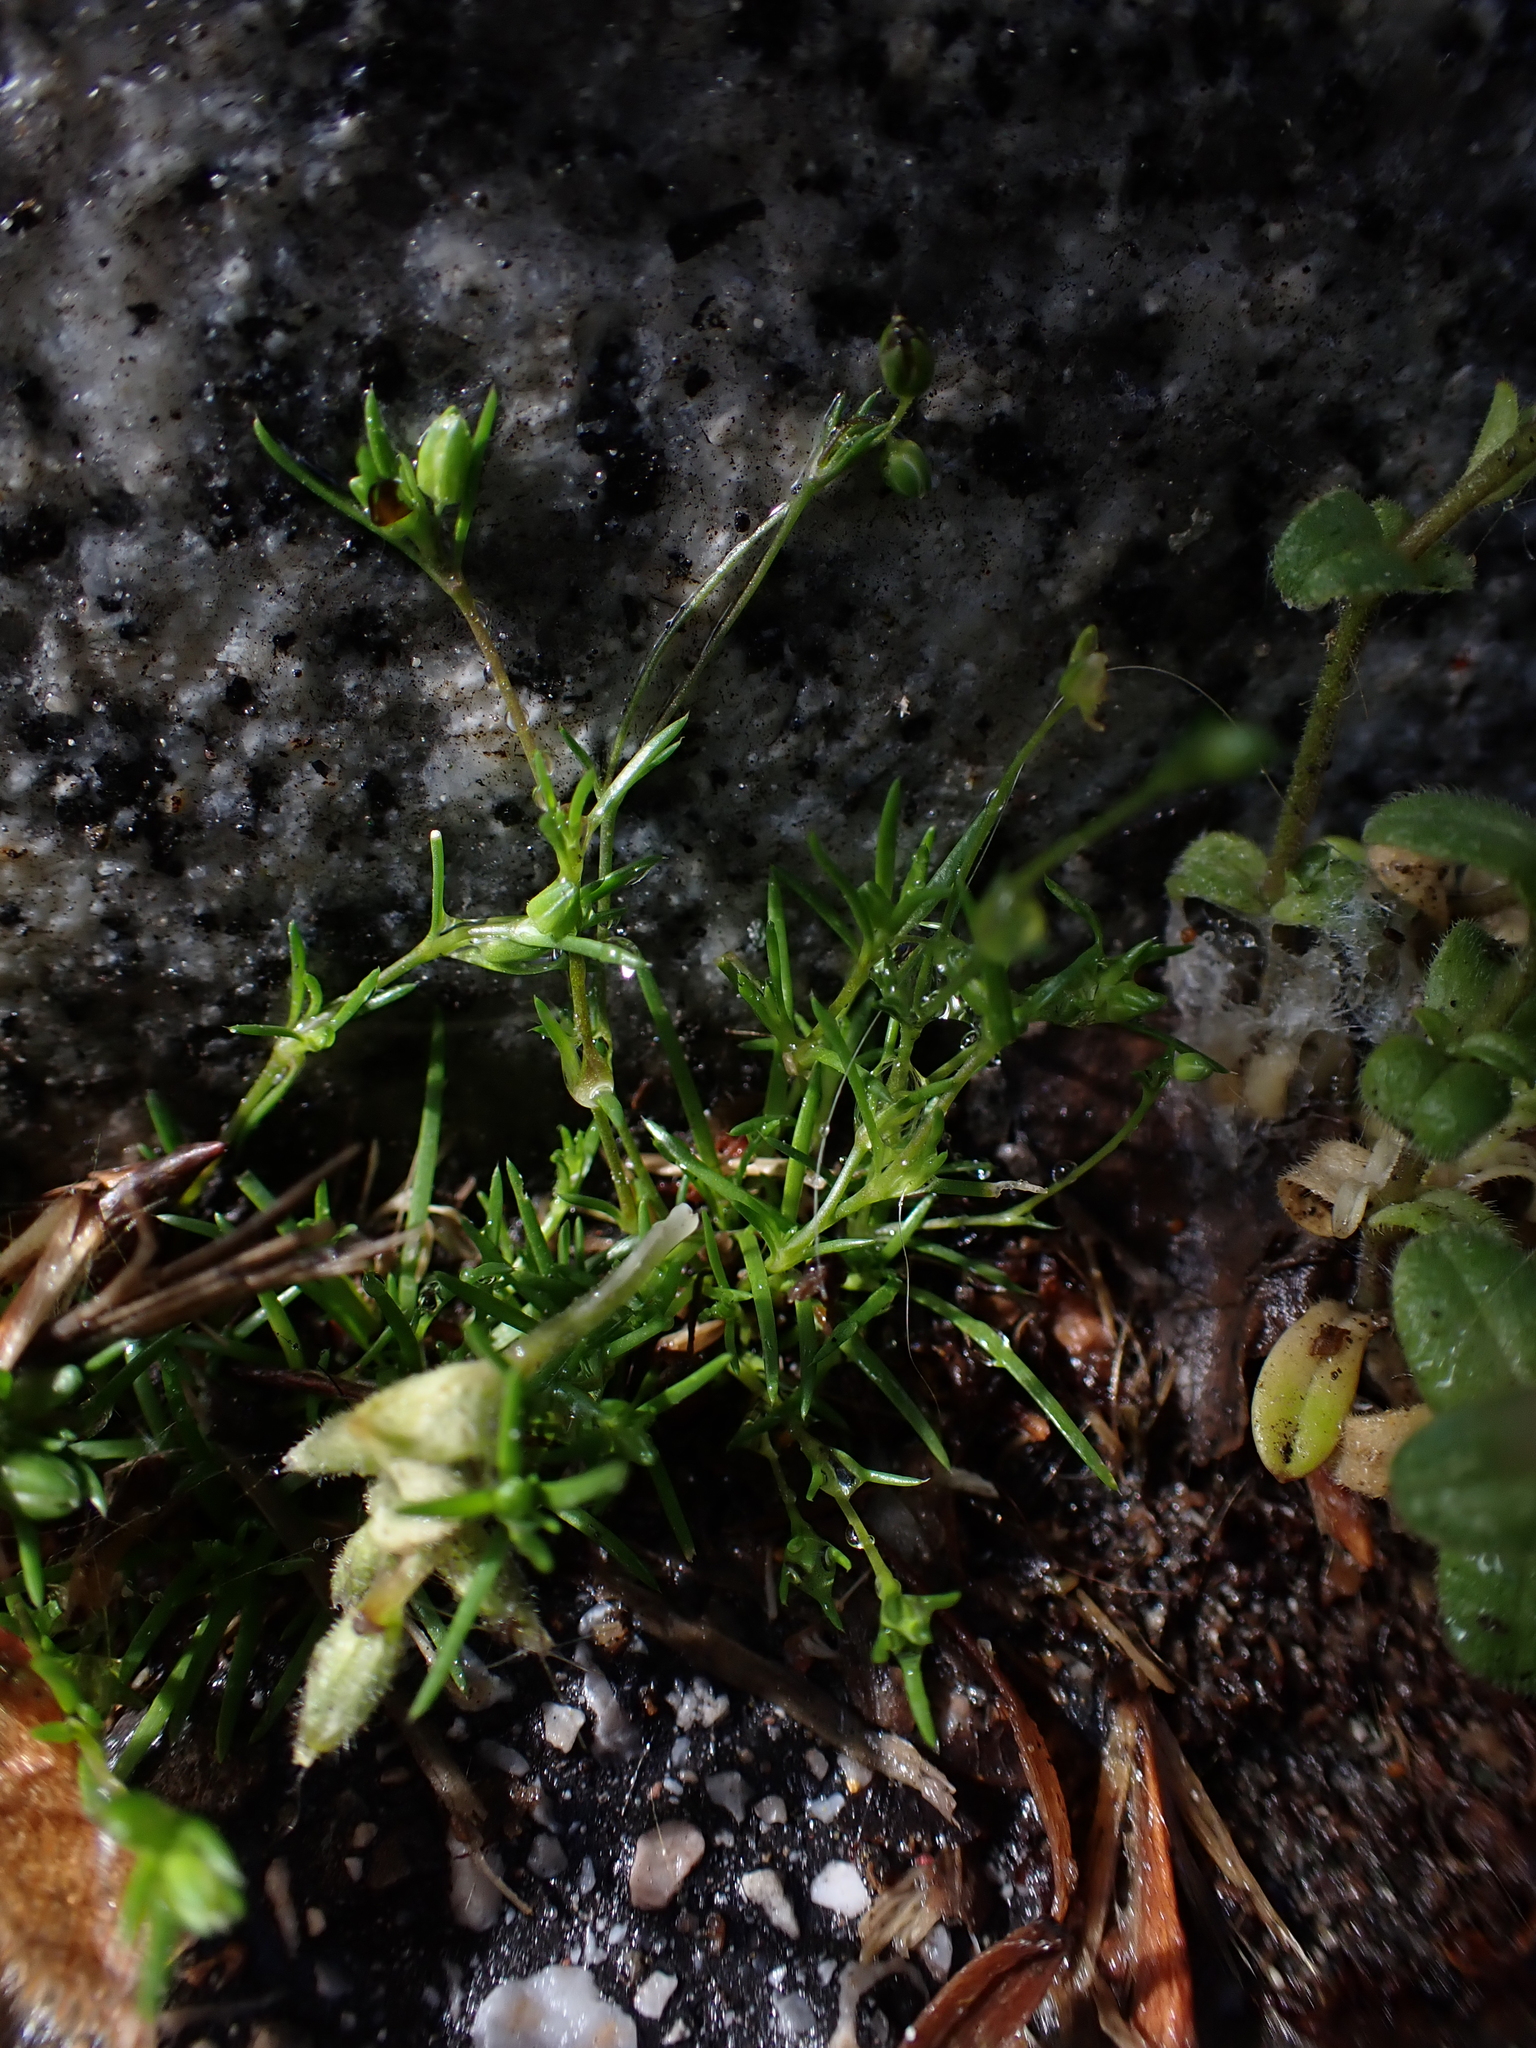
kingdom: Plantae
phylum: Tracheophyta
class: Magnoliopsida
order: Caryophyllales
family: Caryophyllaceae
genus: Sagina
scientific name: Sagina procumbens
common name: Procumbent pearlwort
